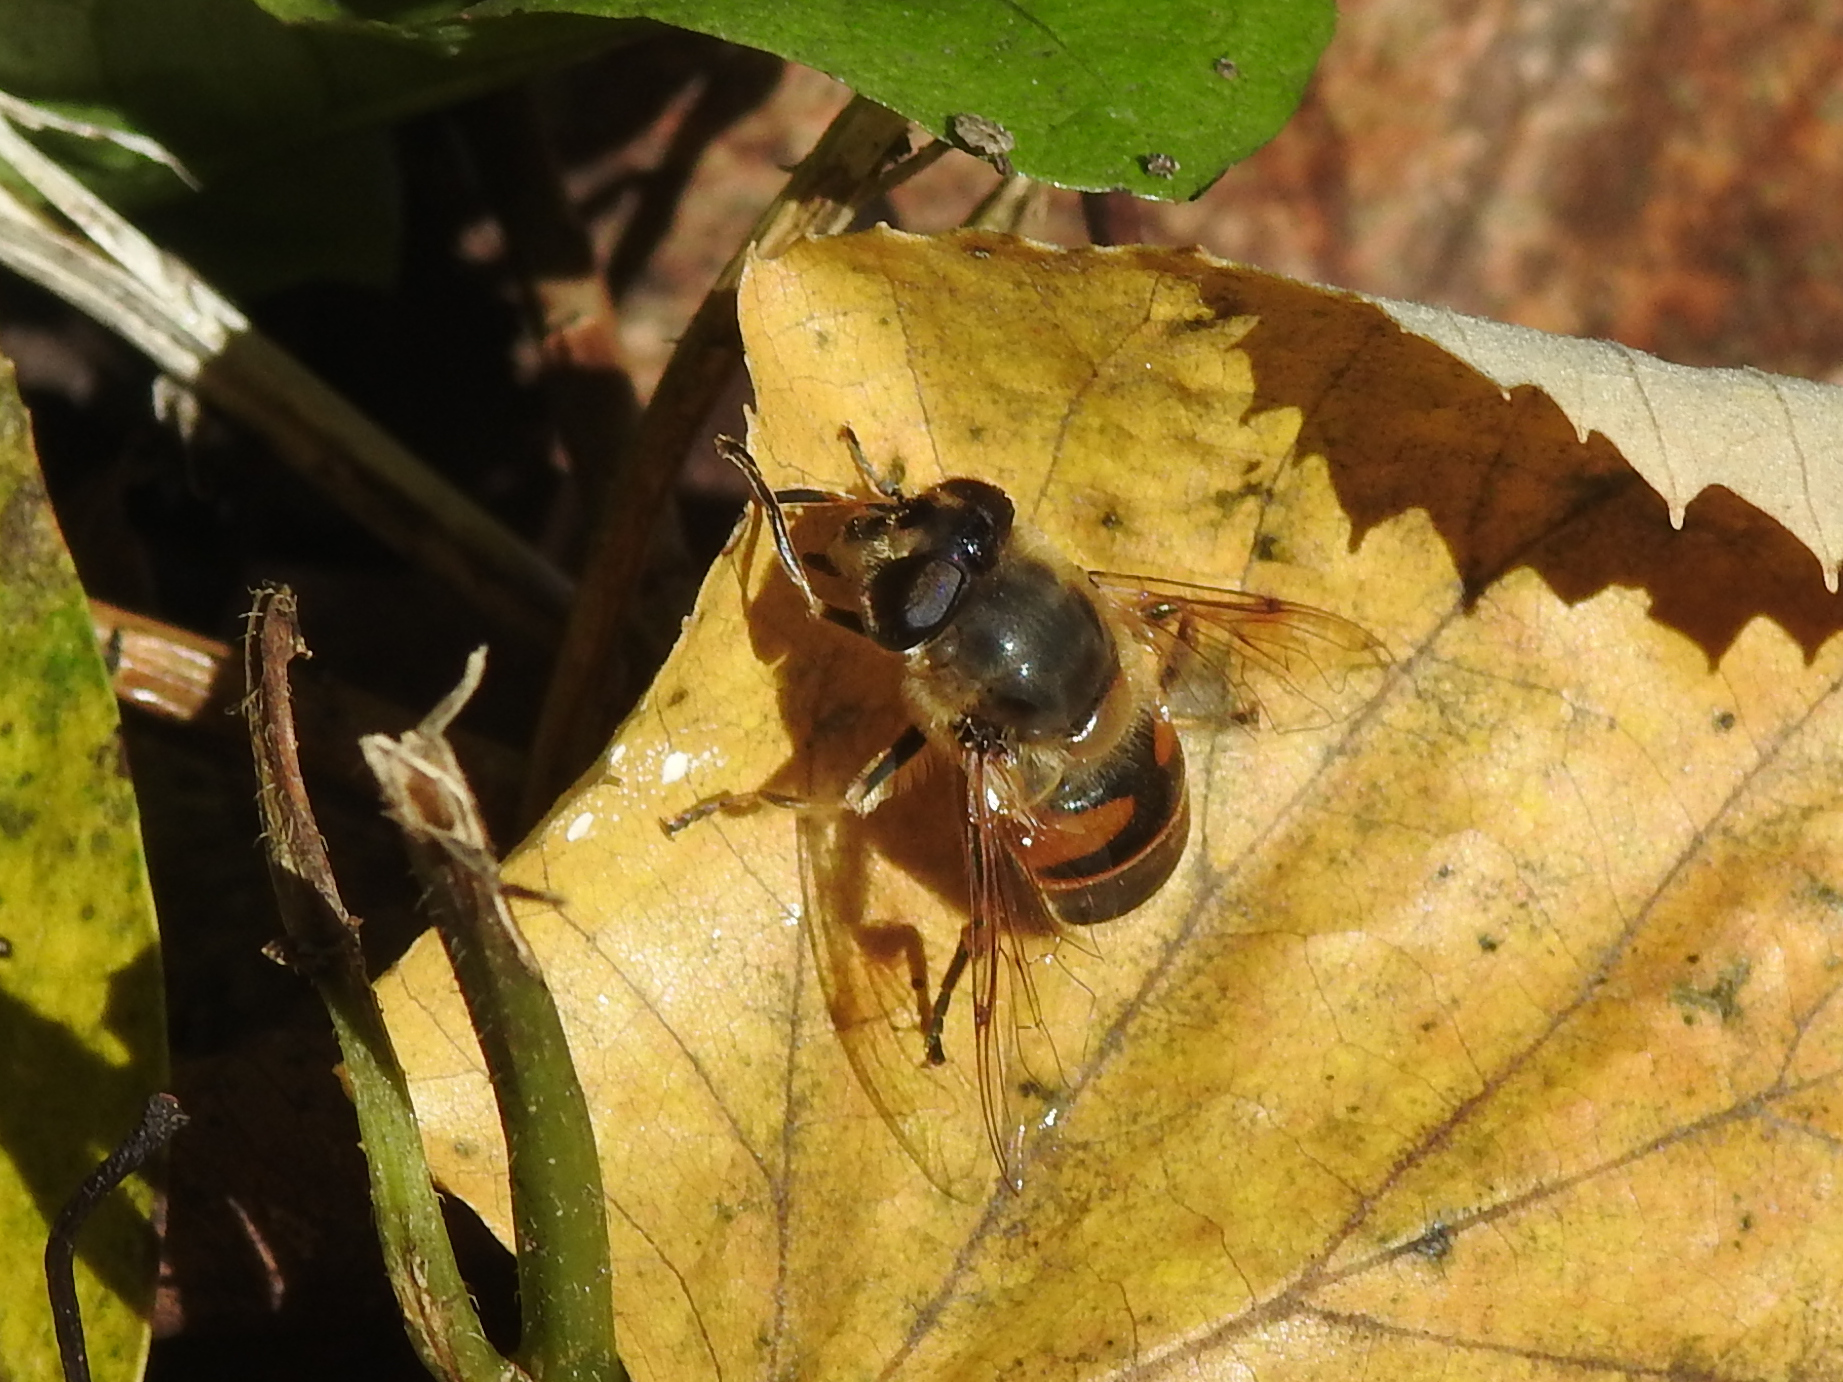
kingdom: Animalia
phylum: Arthropoda
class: Insecta
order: Diptera
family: Syrphidae
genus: Eristalis
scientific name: Eristalis tenax
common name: Drone fly
